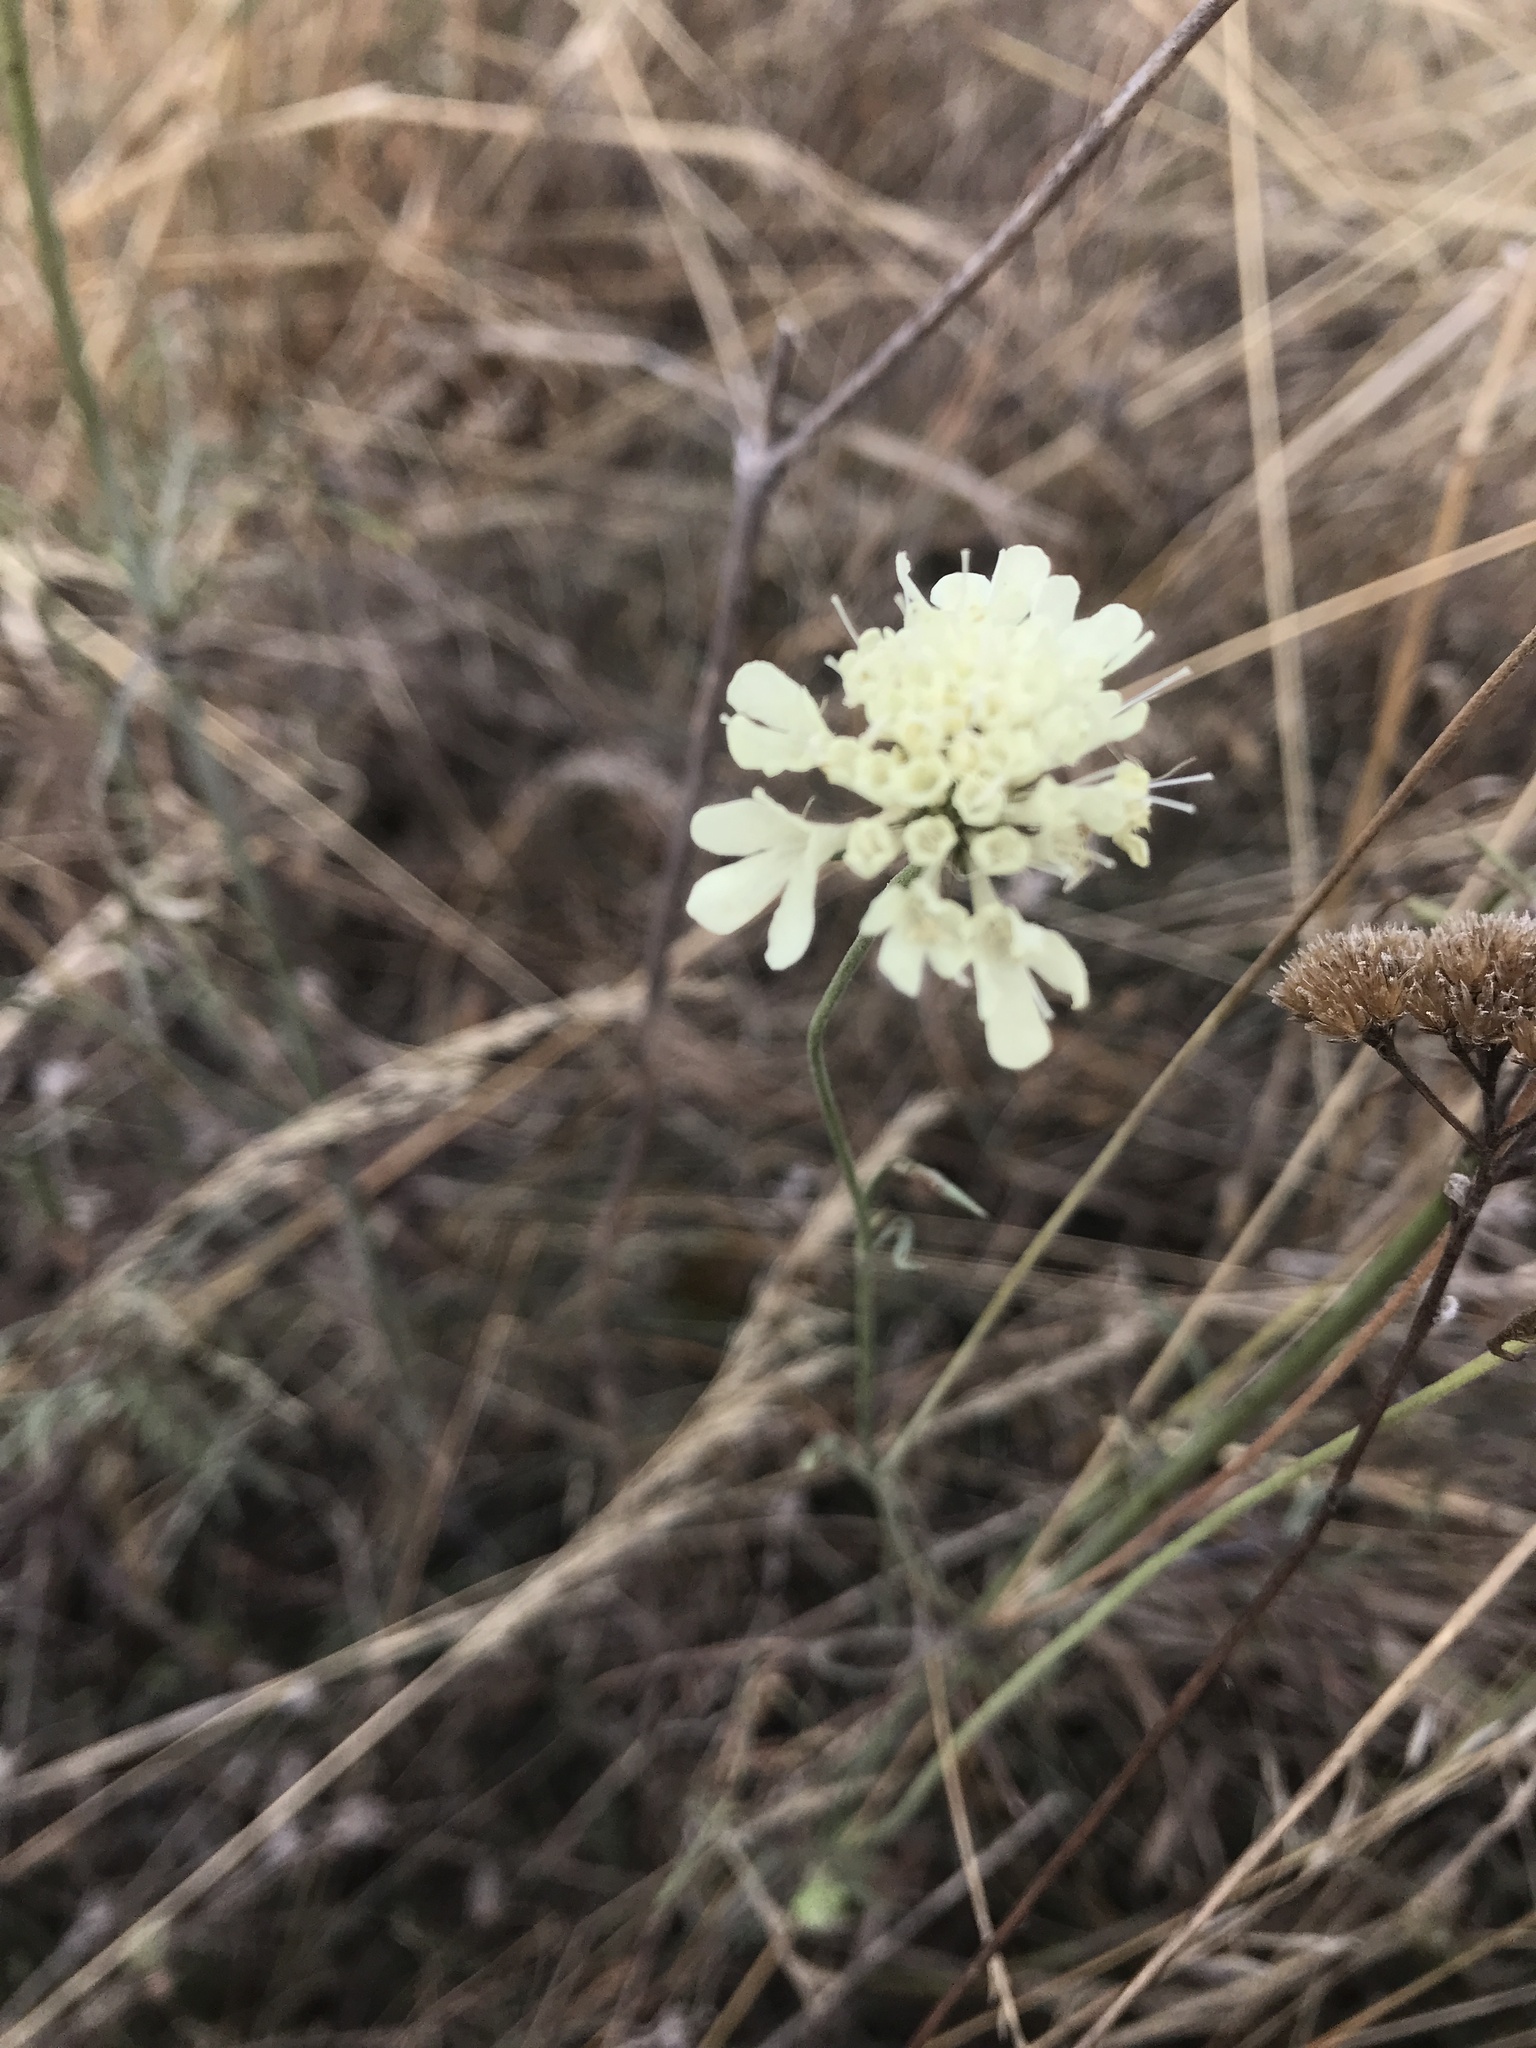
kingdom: Plantae
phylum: Tracheophyta
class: Magnoliopsida
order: Dipsacales
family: Caprifoliaceae
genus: Scabiosa
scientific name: Scabiosa ochroleuca
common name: Cream pincushions
